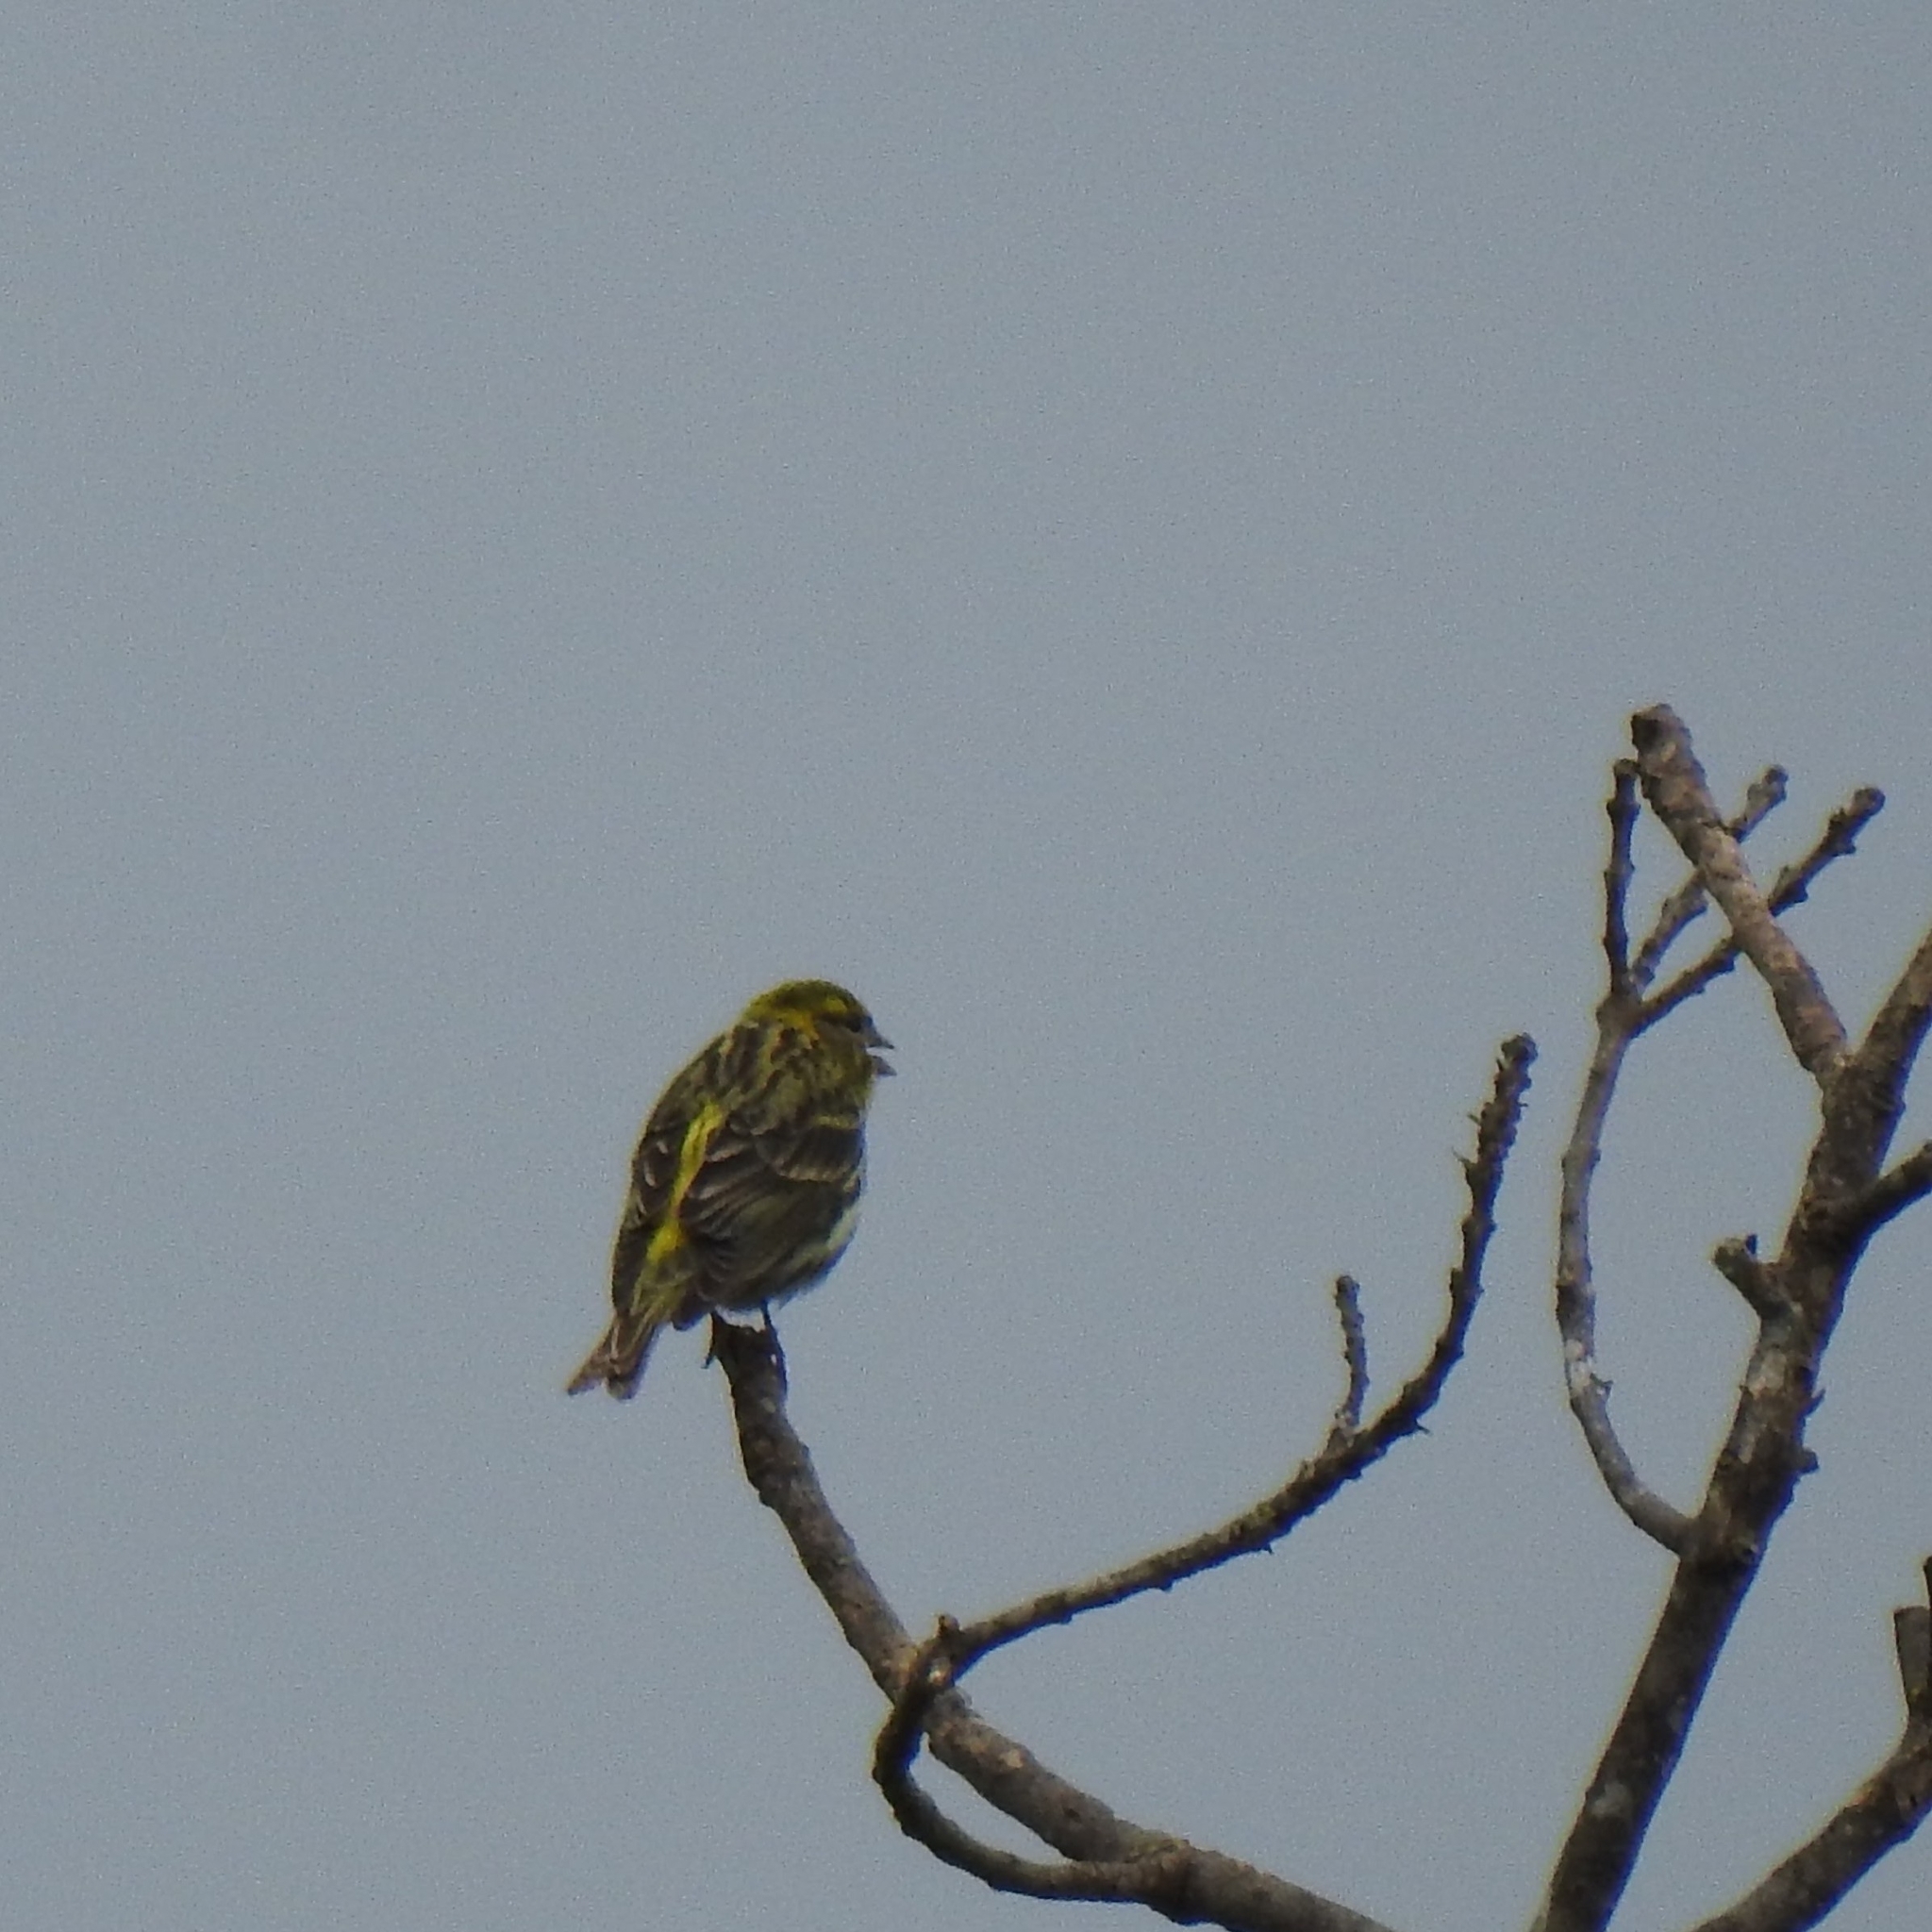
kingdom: Animalia
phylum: Chordata
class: Aves
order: Passeriformes
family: Fringillidae
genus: Serinus
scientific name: Serinus serinus
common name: European serin
